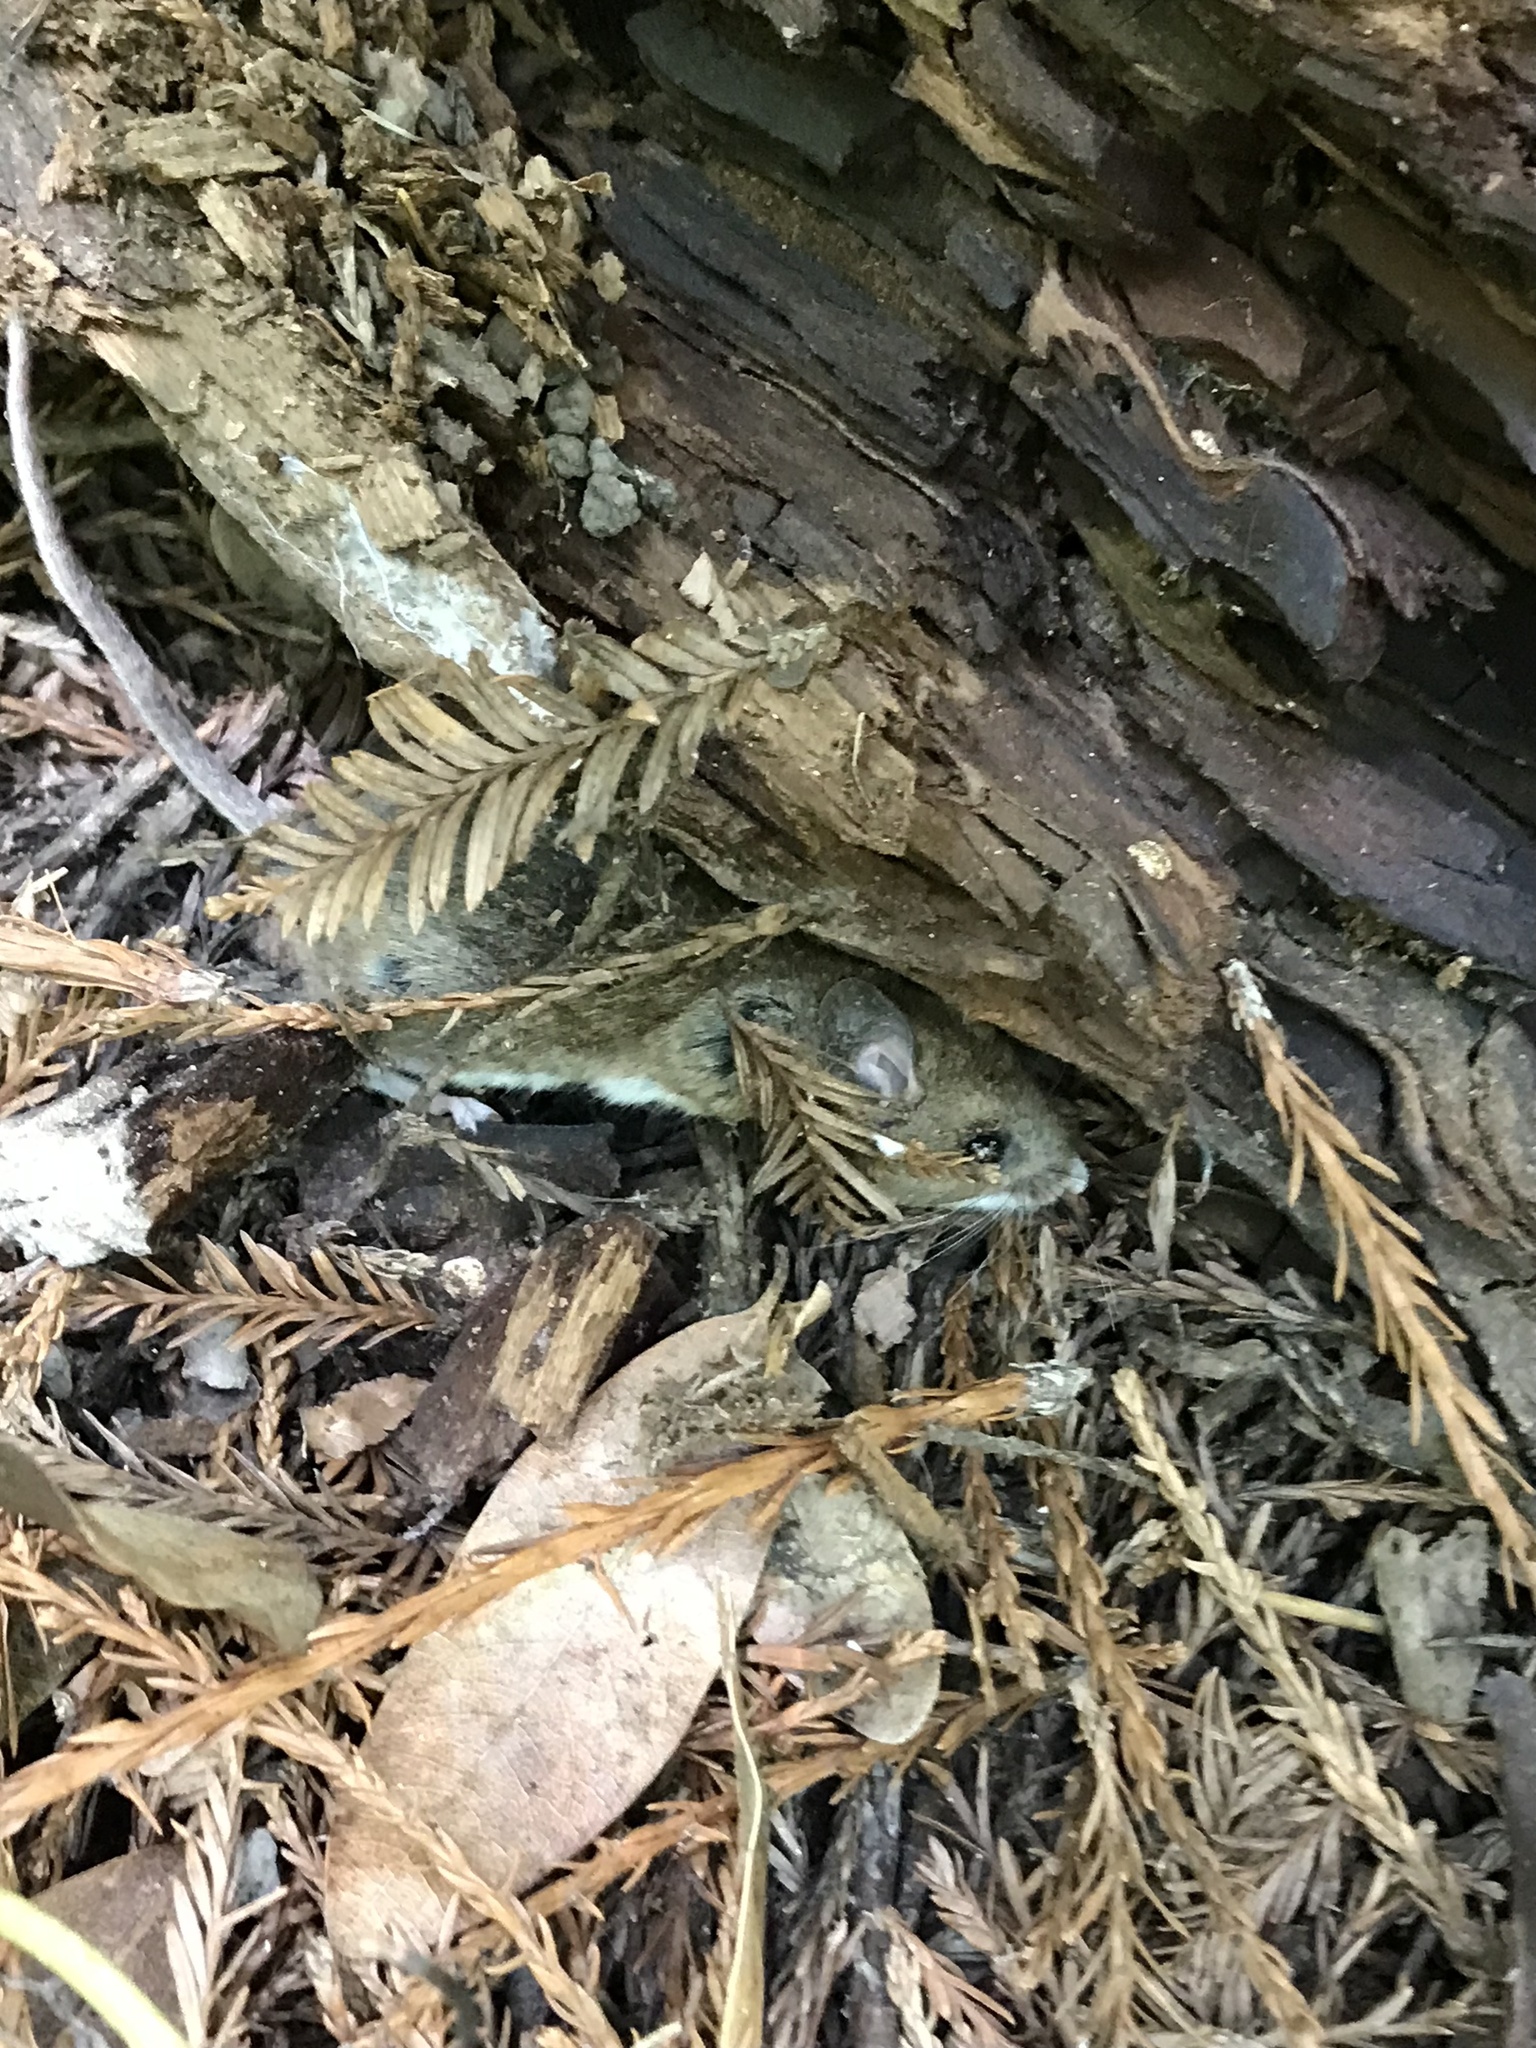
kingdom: Animalia
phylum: Chordata
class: Mammalia
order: Rodentia
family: Cricetidae
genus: Peromyscus
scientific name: Peromyscus maniculatus
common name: Deer mouse
